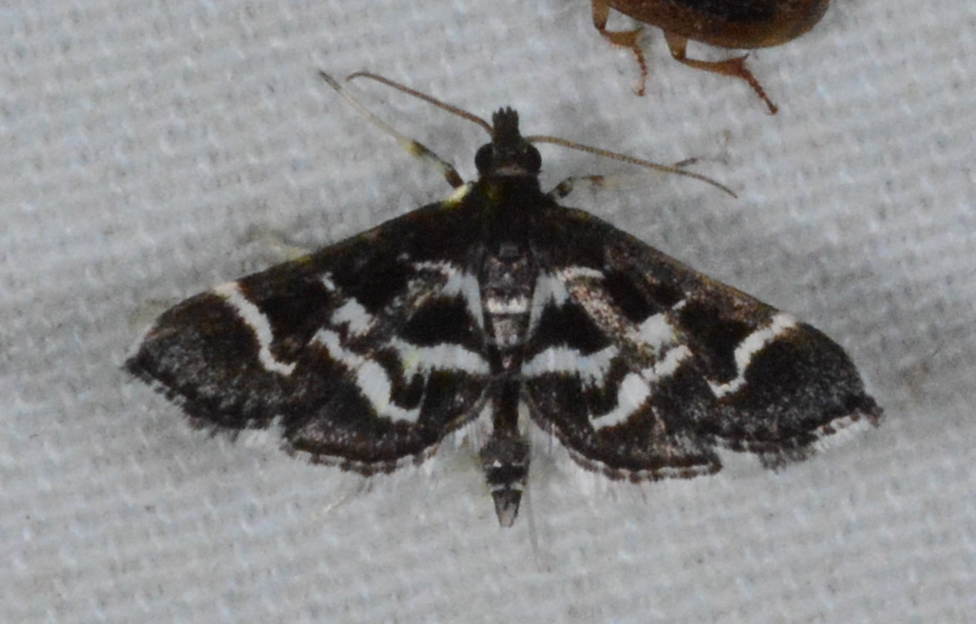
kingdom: Animalia
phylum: Arthropoda
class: Insecta
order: Lepidoptera
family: Crambidae
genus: Diasemiodes
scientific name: Diasemiodes janassialis
